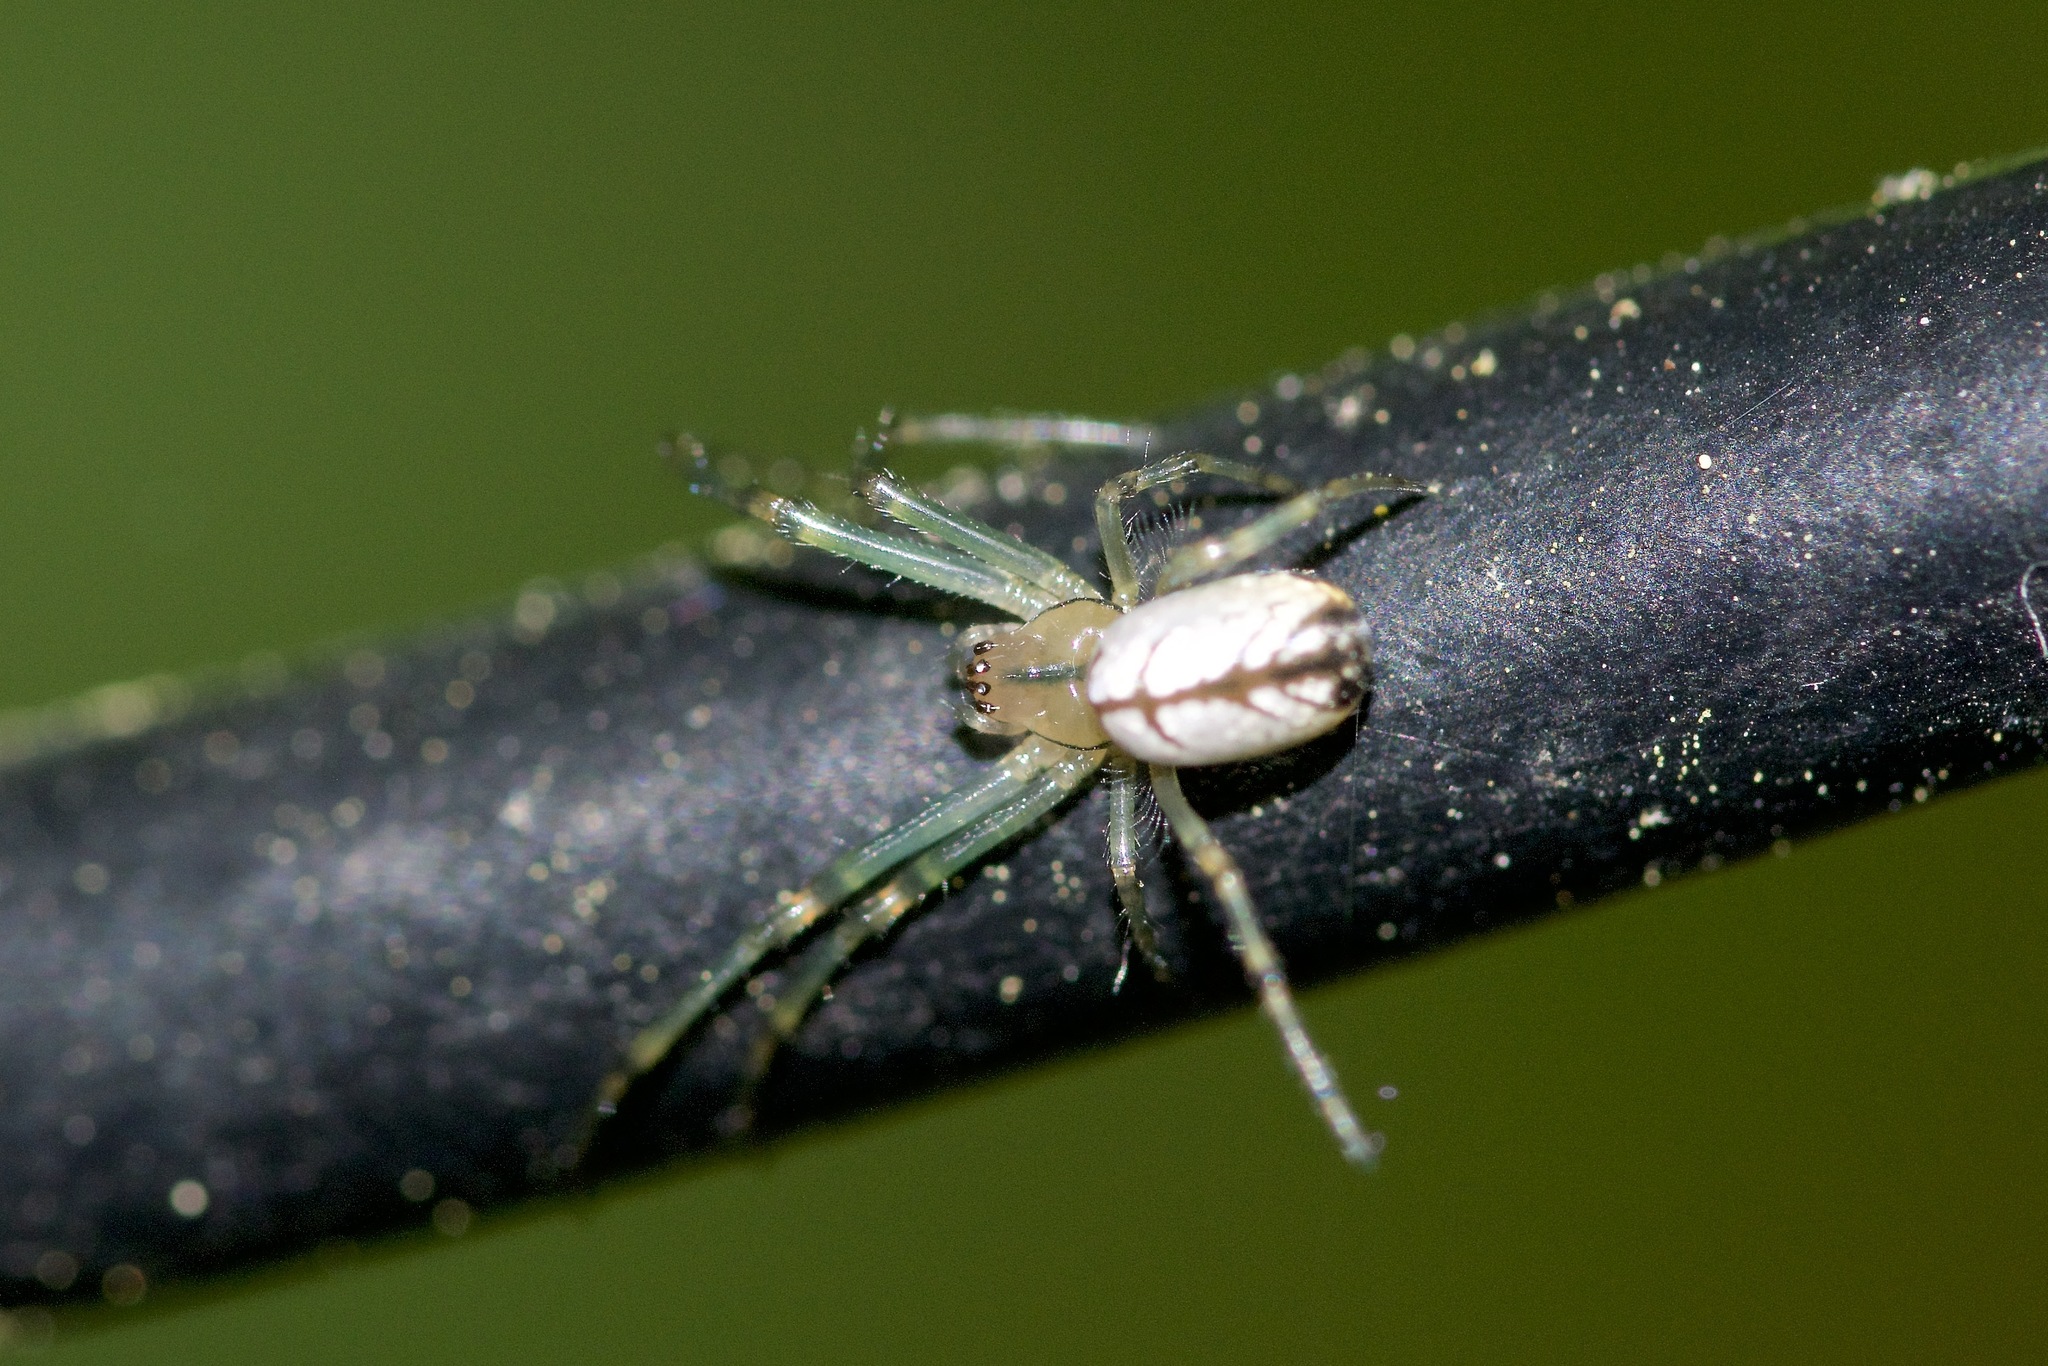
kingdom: Animalia
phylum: Arthropoda
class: Arachnida
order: Araneae
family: Tetragnathidae
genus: Leucauge
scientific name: Leucauge venusta
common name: Longjawed orb weavers
